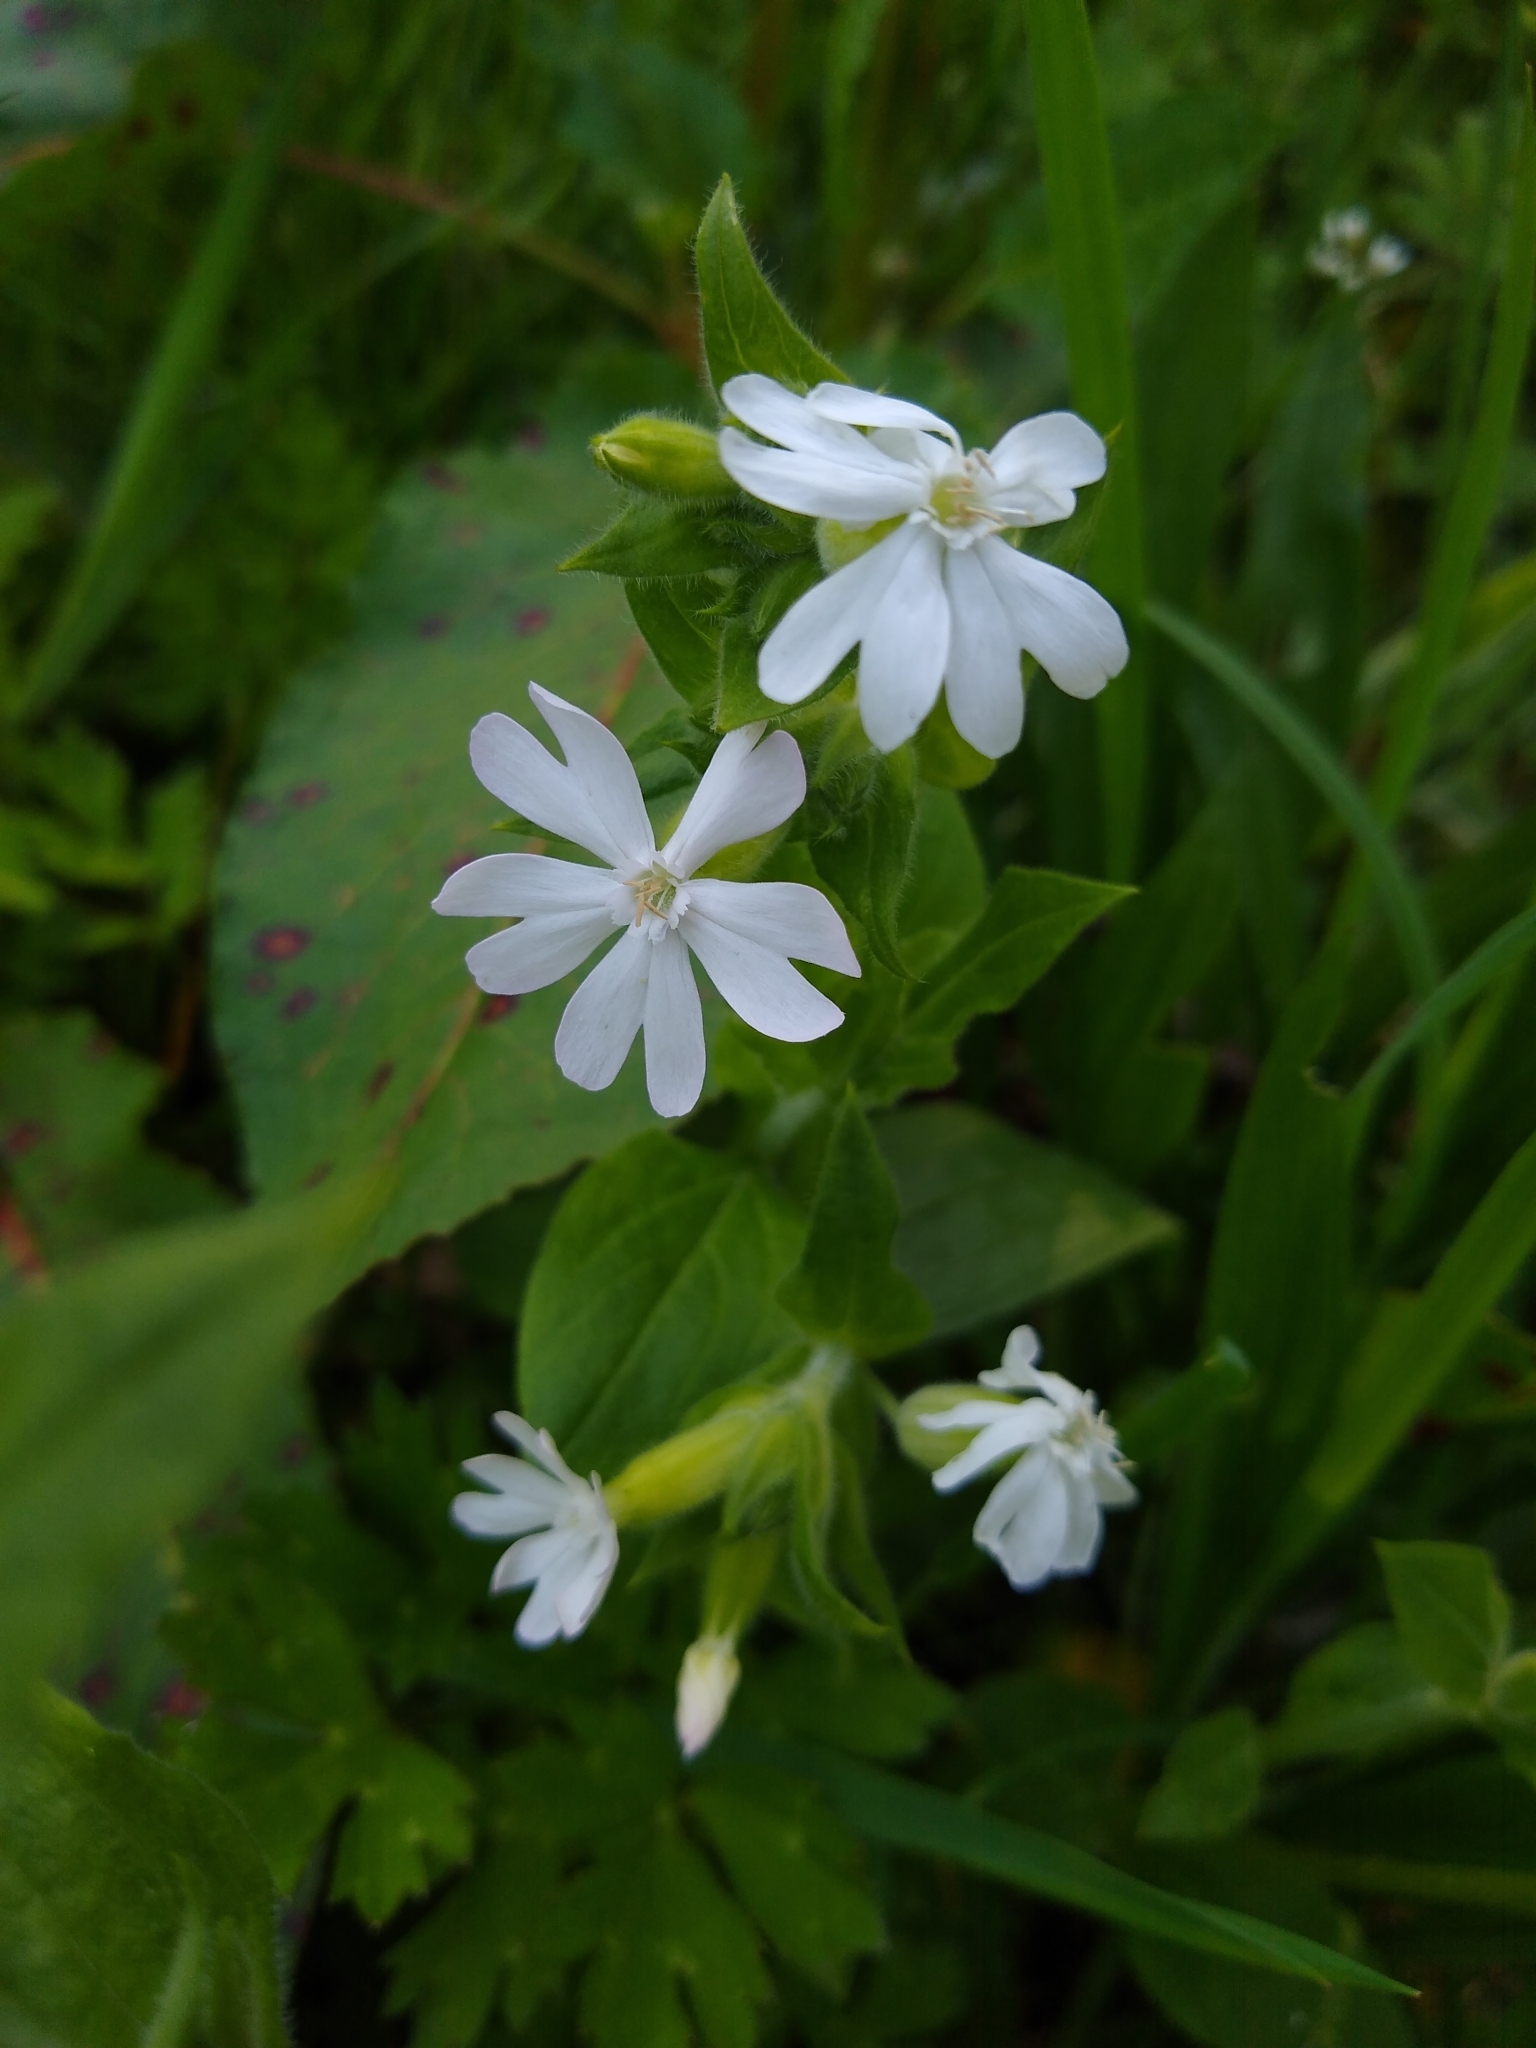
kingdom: Plantae
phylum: Tracheophyta
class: Magnoliopsida
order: Caryophyllales
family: Caryophyllaceae
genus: Silene
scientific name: Silene latifolia
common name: White campion
